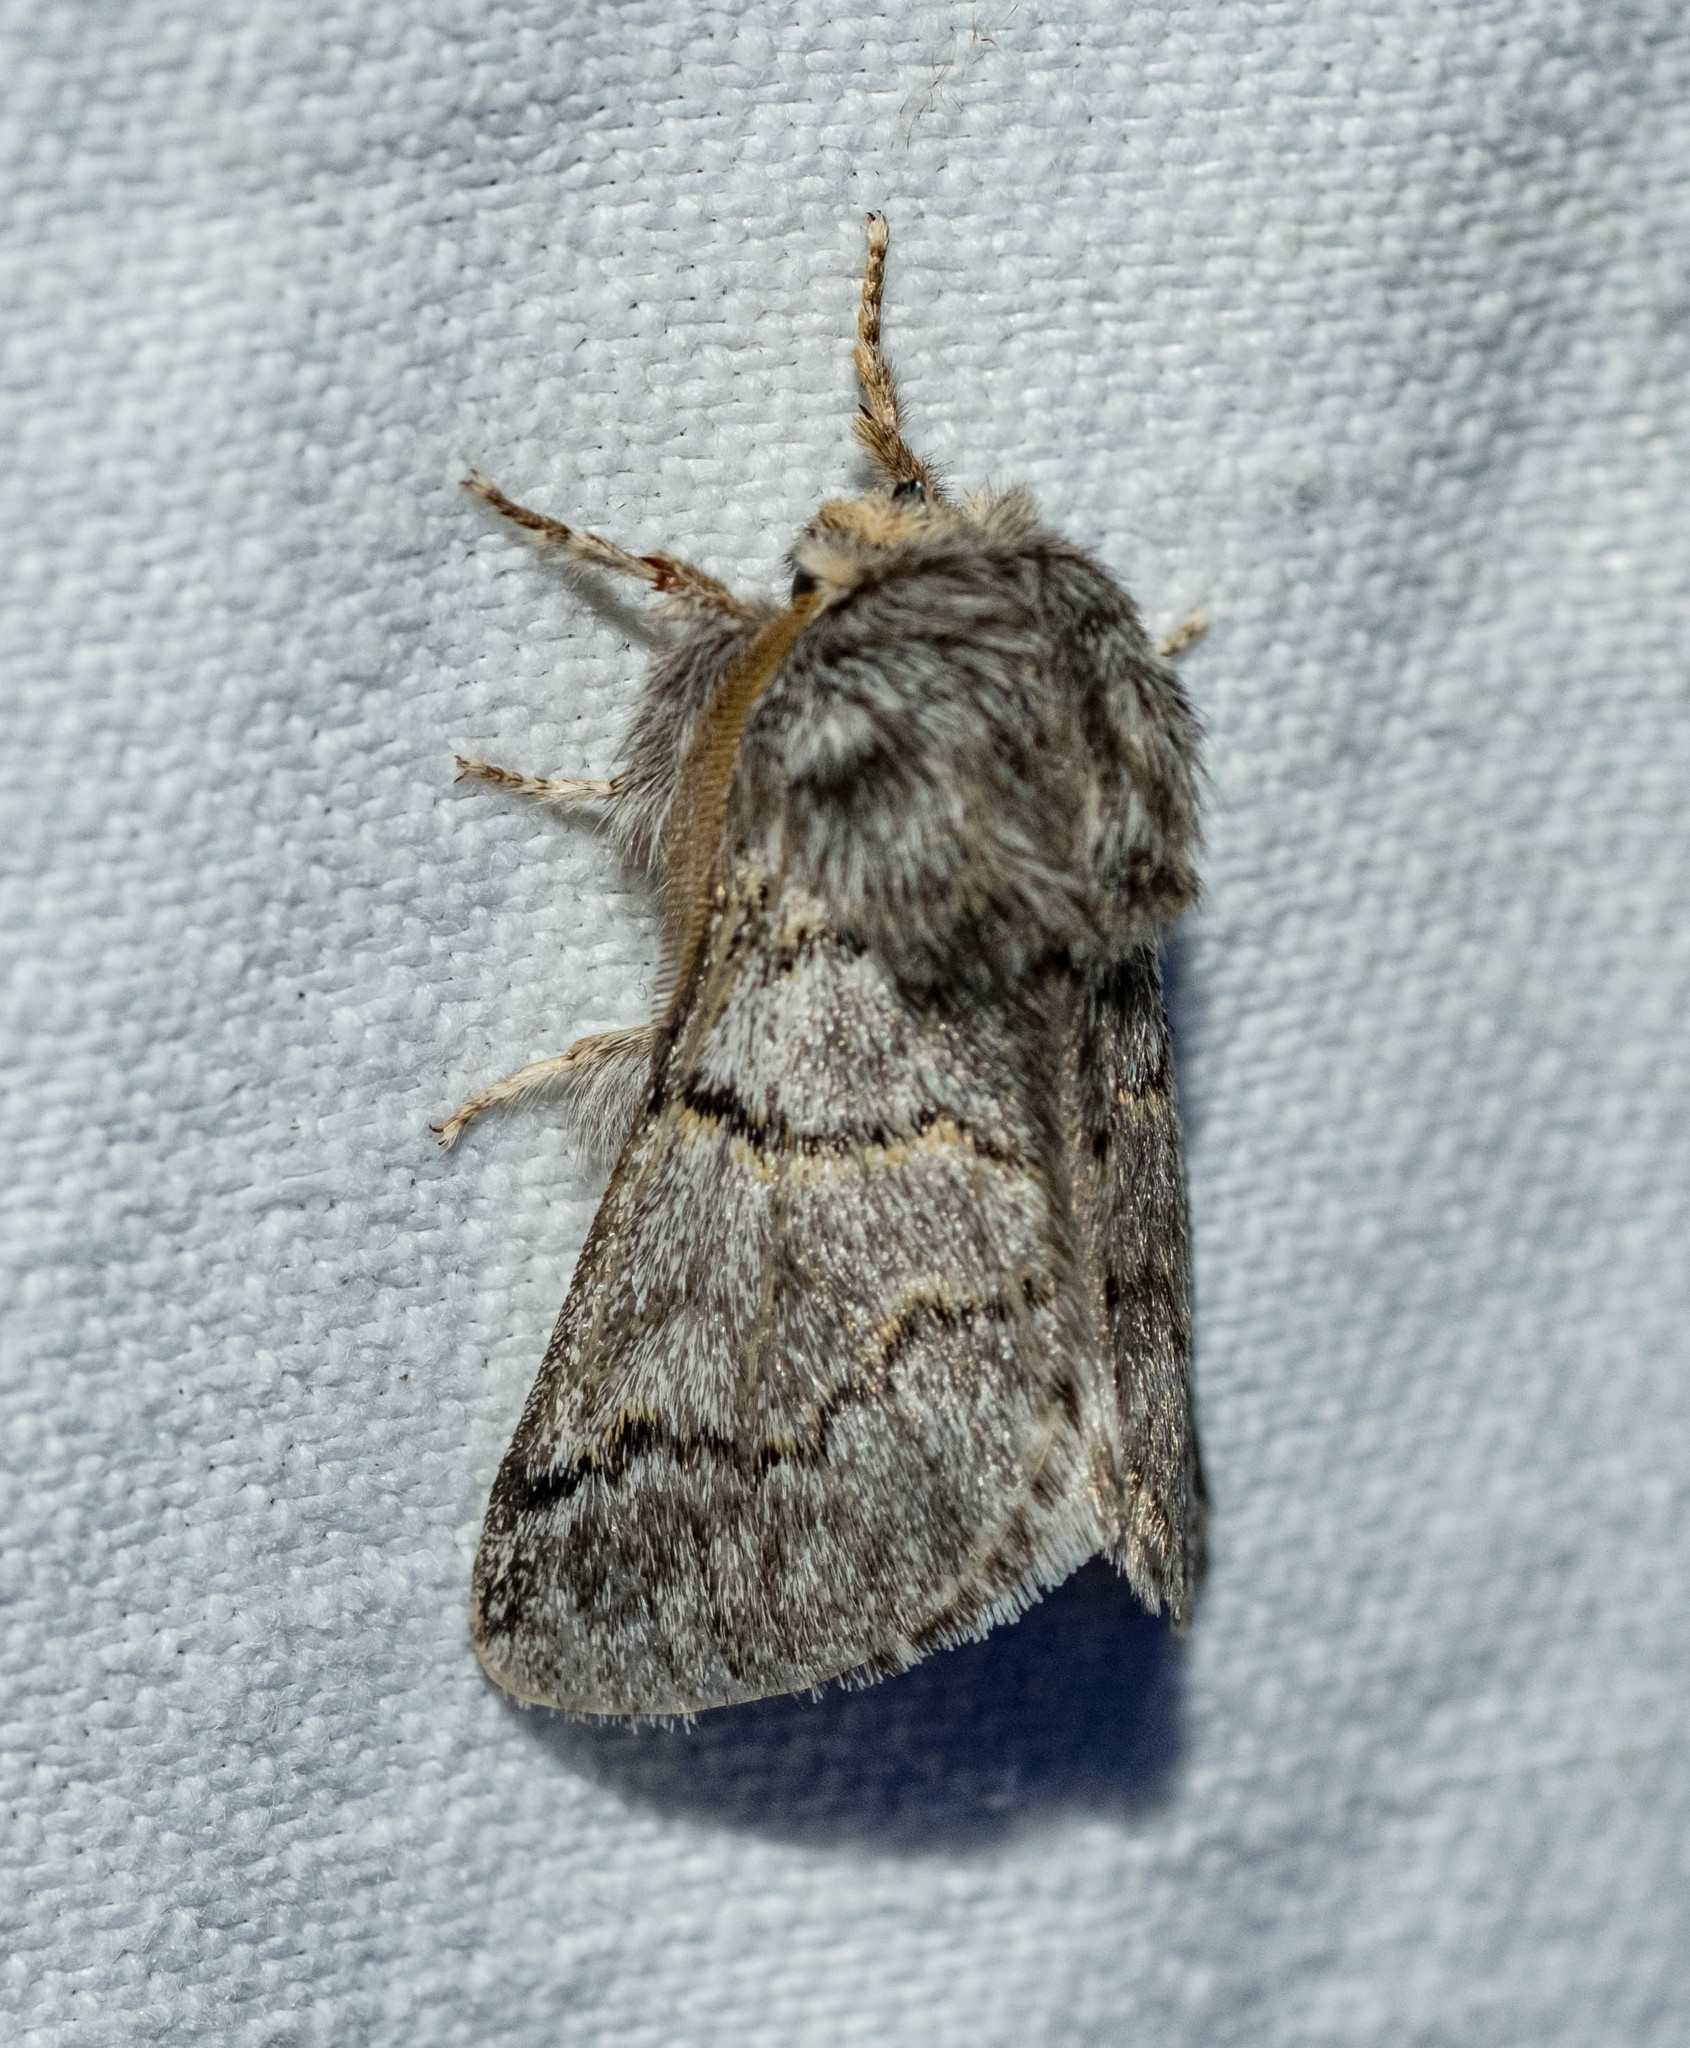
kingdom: Animalia
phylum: Arthropoda
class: Insecta
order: Lepidoptera
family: Notodontidae
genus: Thaumetopoea
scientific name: Thaumetopoea processionea
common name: Oak processionea
